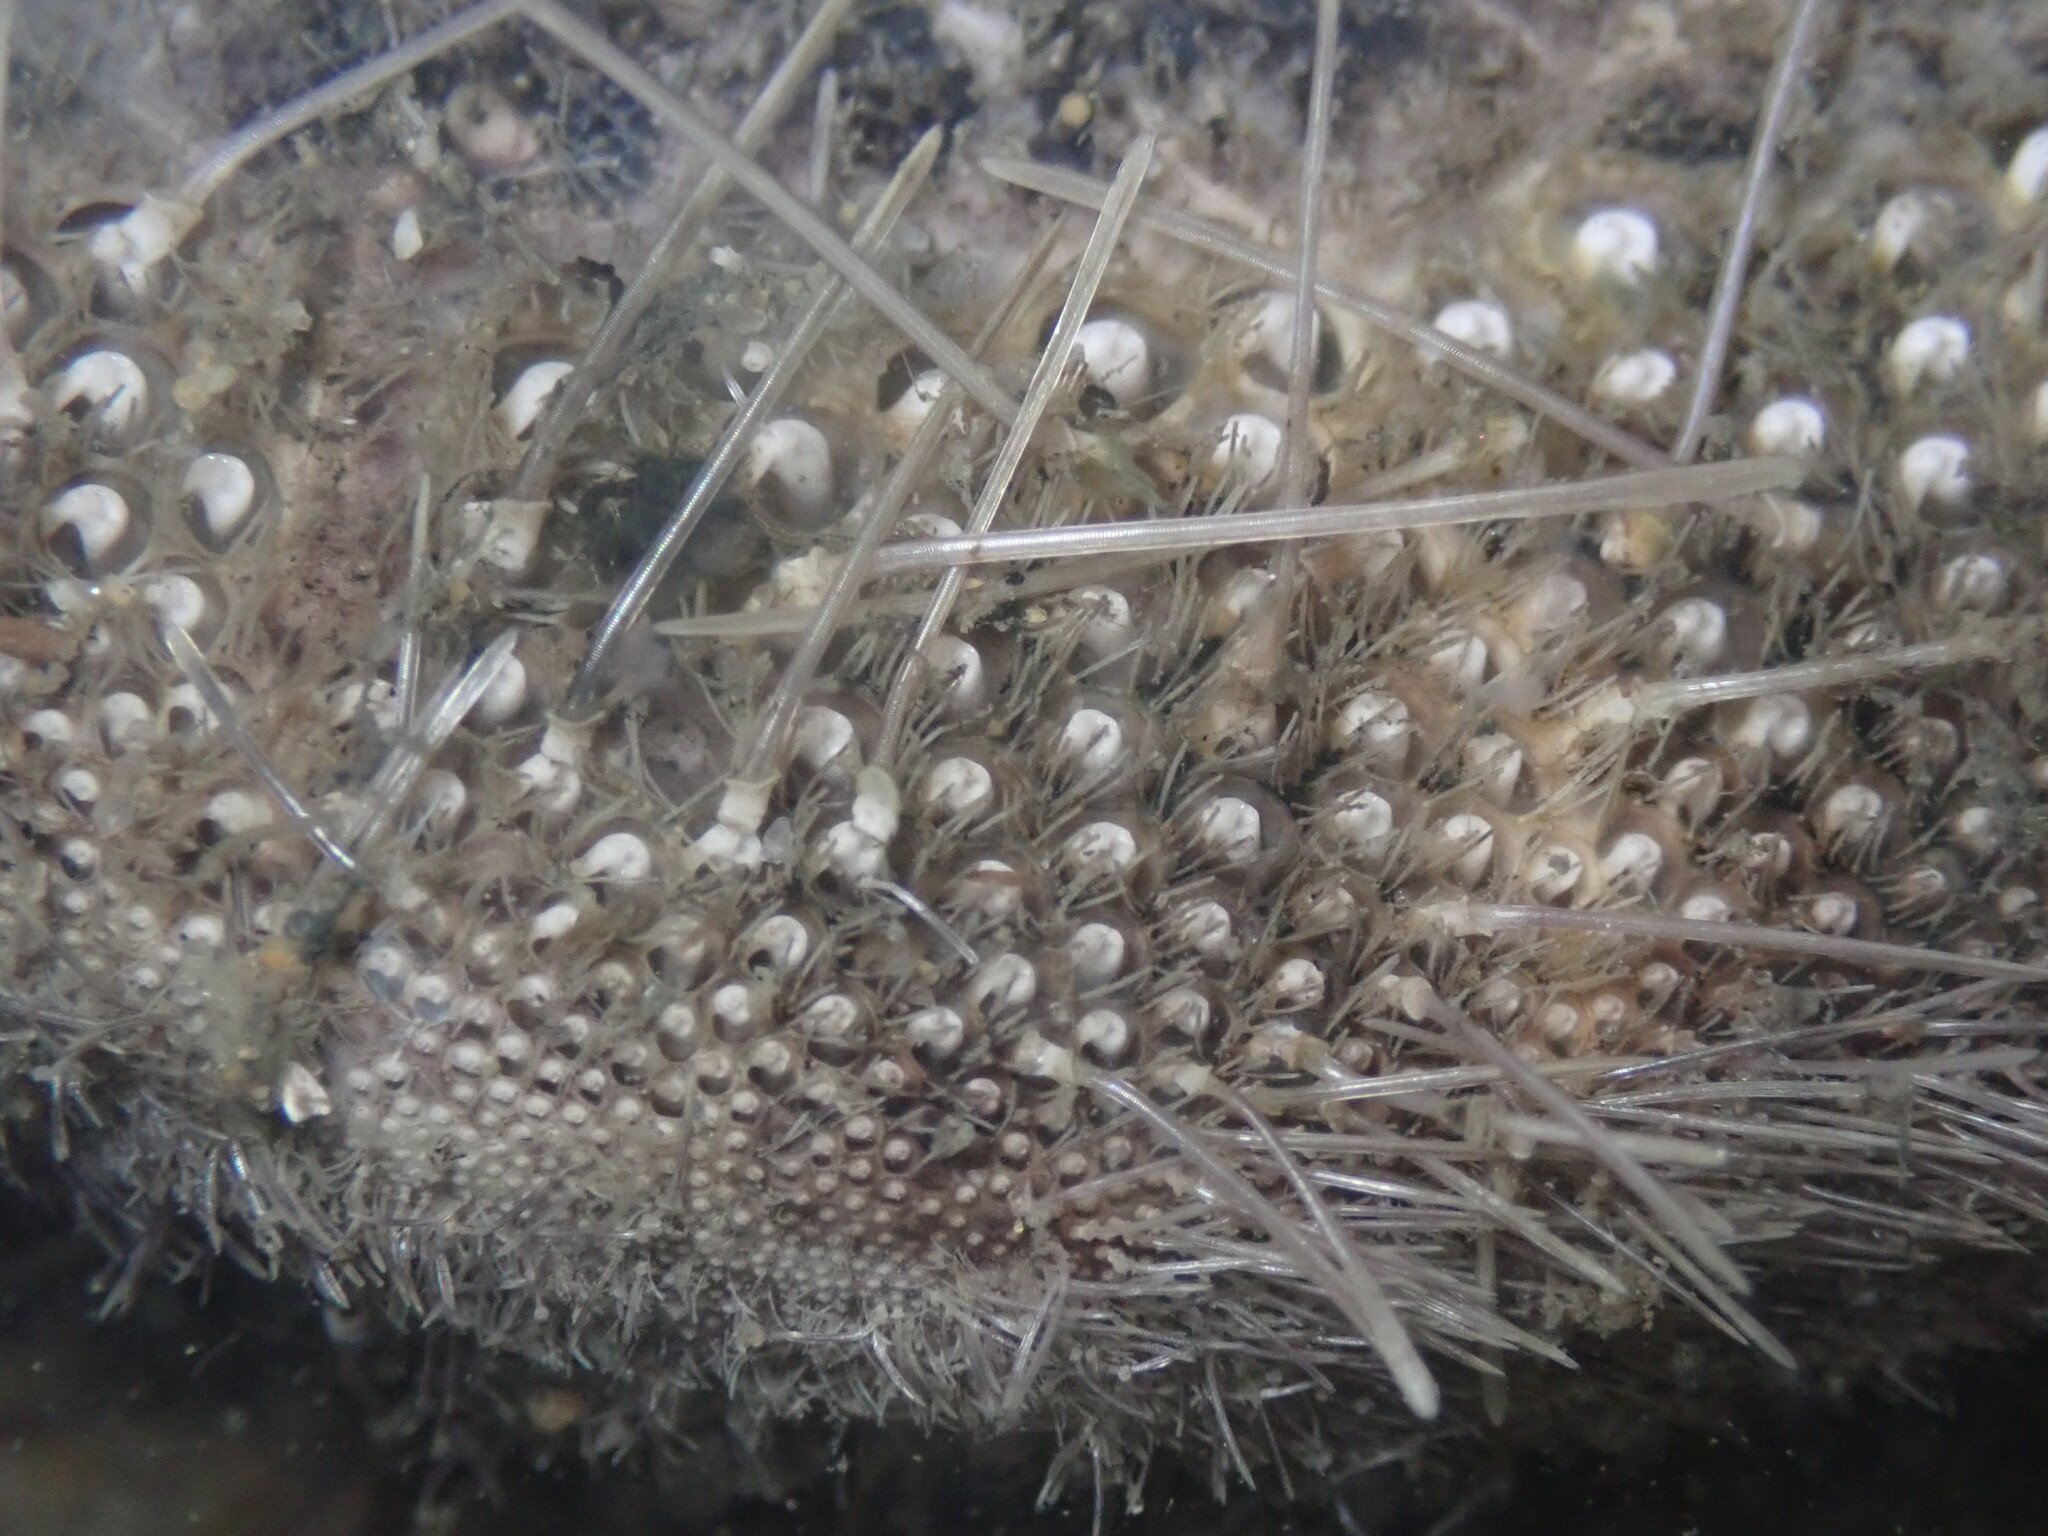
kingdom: Animalia
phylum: Echinodermata
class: Echinoidea
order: Spatangoida
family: Loveniidae
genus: Lovenia
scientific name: Lovenia cordiformis
